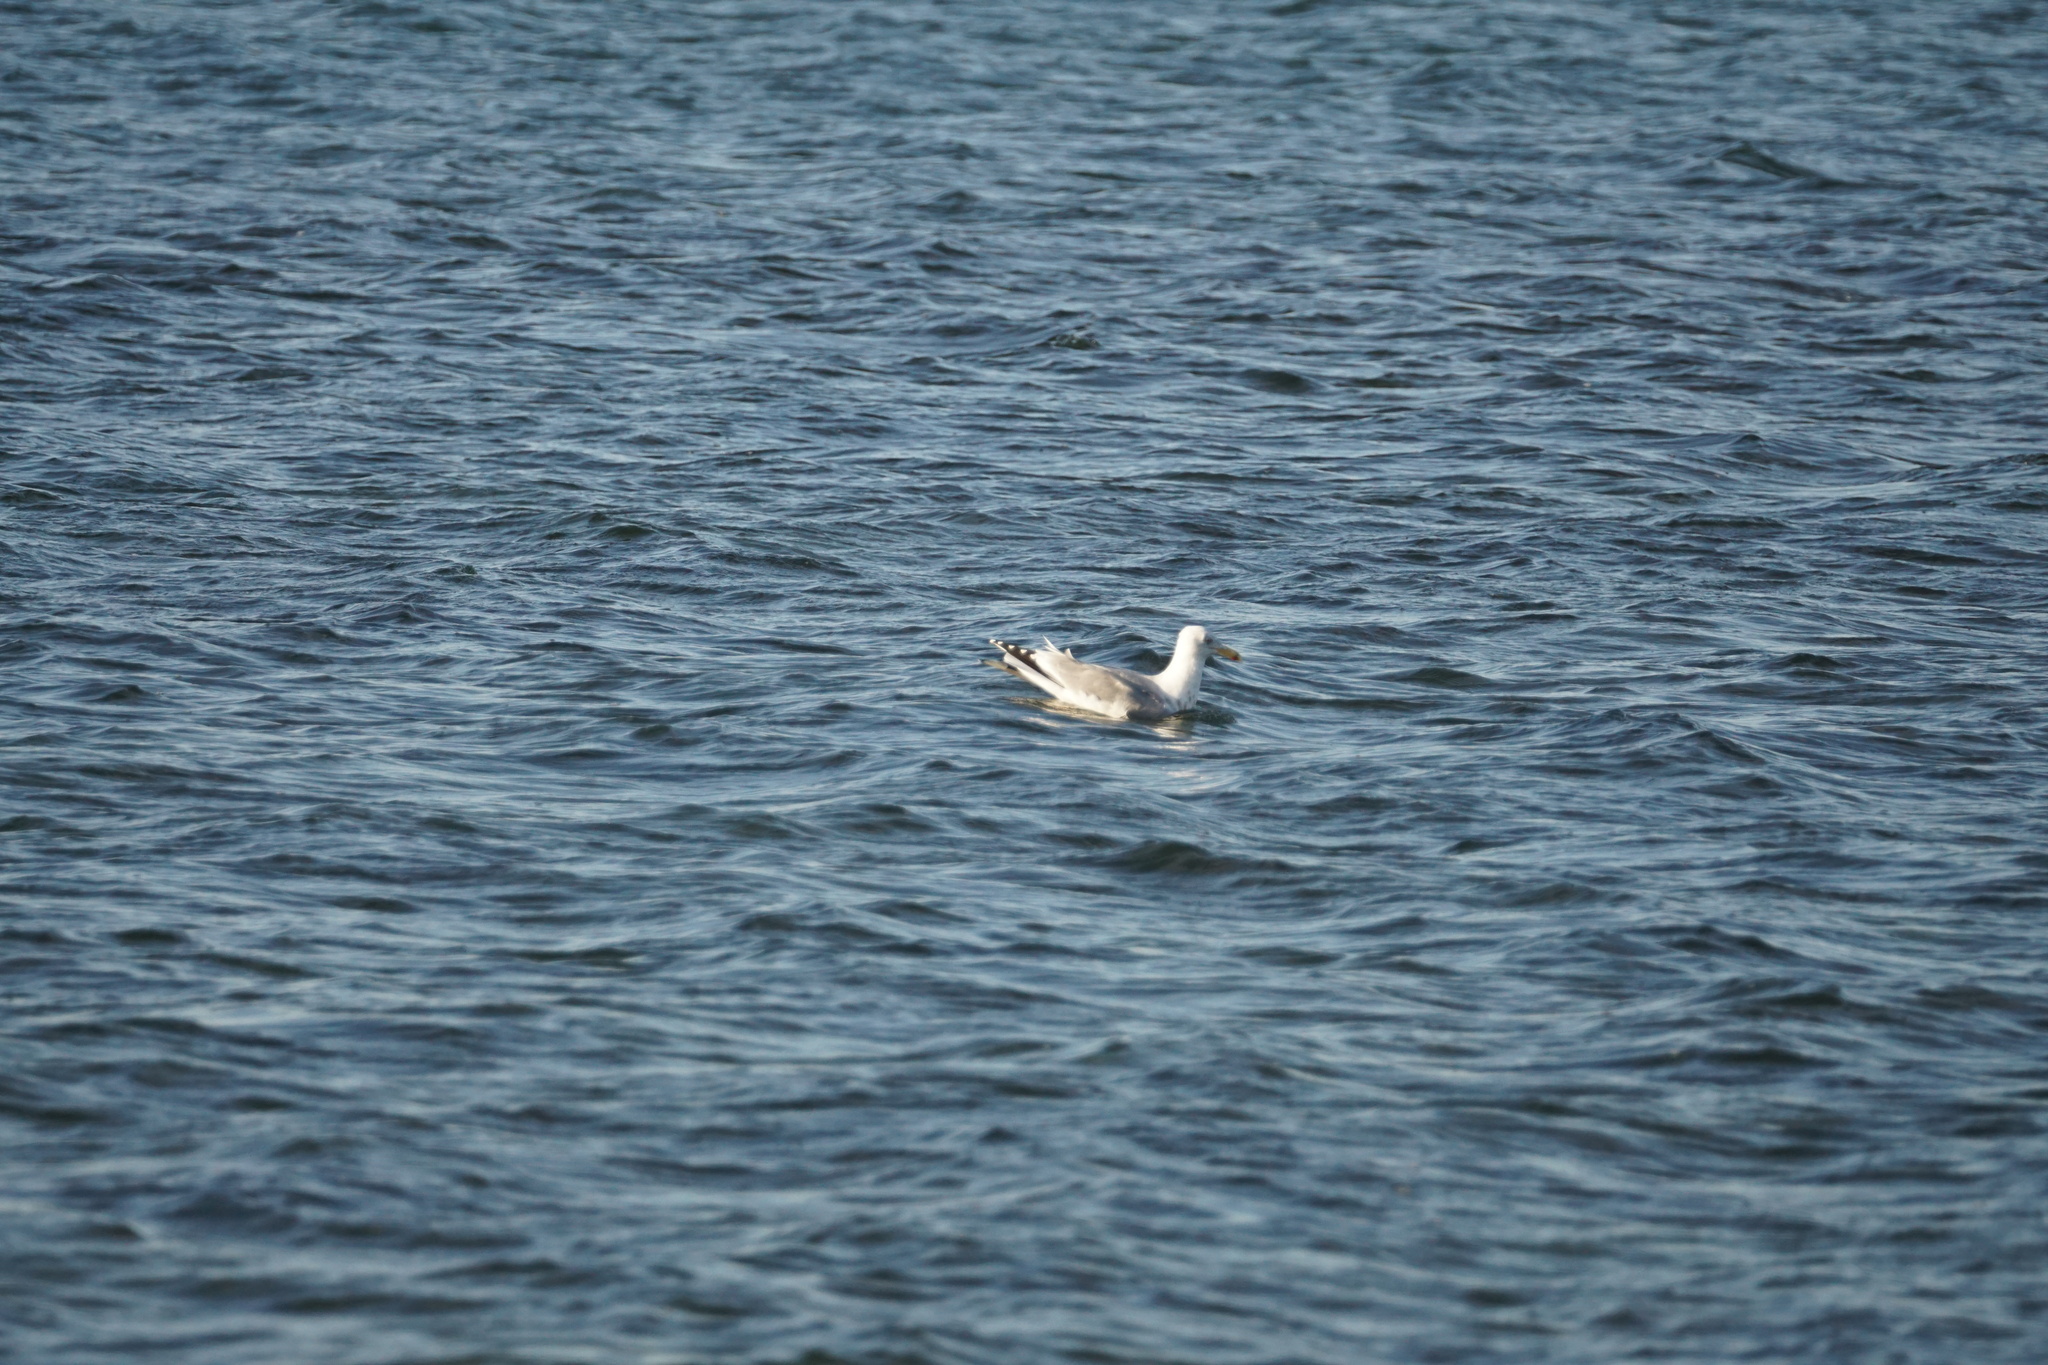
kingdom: Animalia
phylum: Chordata
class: Aves
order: Charadriiformes
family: Laridae
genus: Larus
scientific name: Larus argentatus
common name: Herring gull
